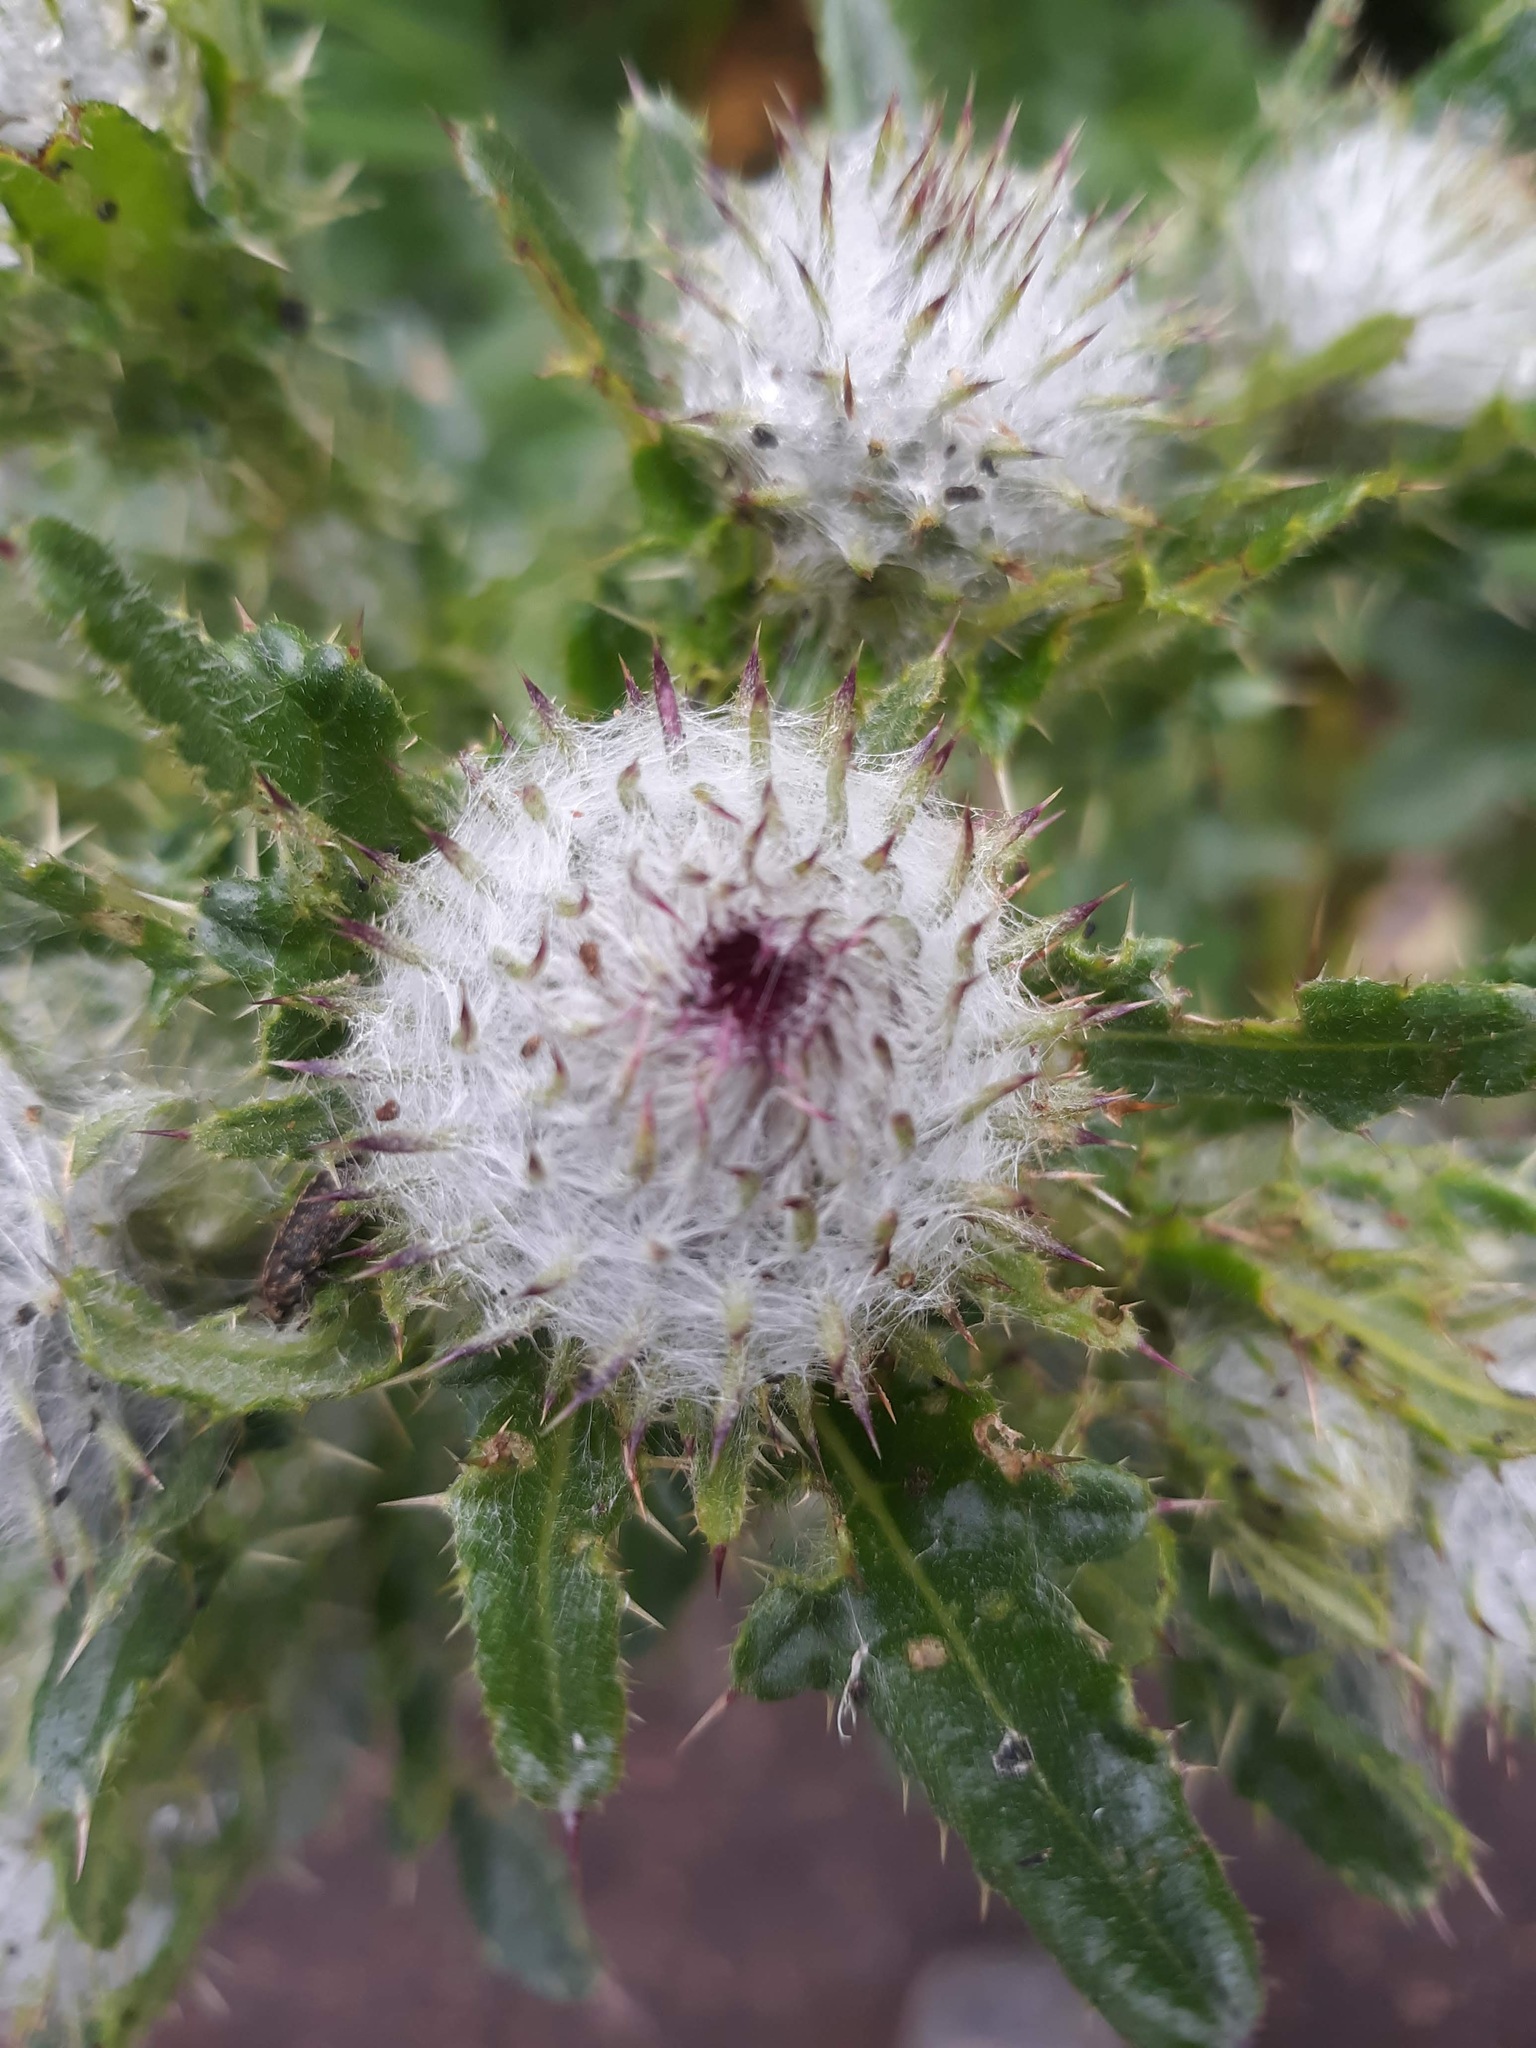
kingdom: Plantae
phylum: Tracheophyta
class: Magnoliopsida
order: Asterales
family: Asteraceae
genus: Cirsium
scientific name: Cirsium edule
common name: Indian thistle
